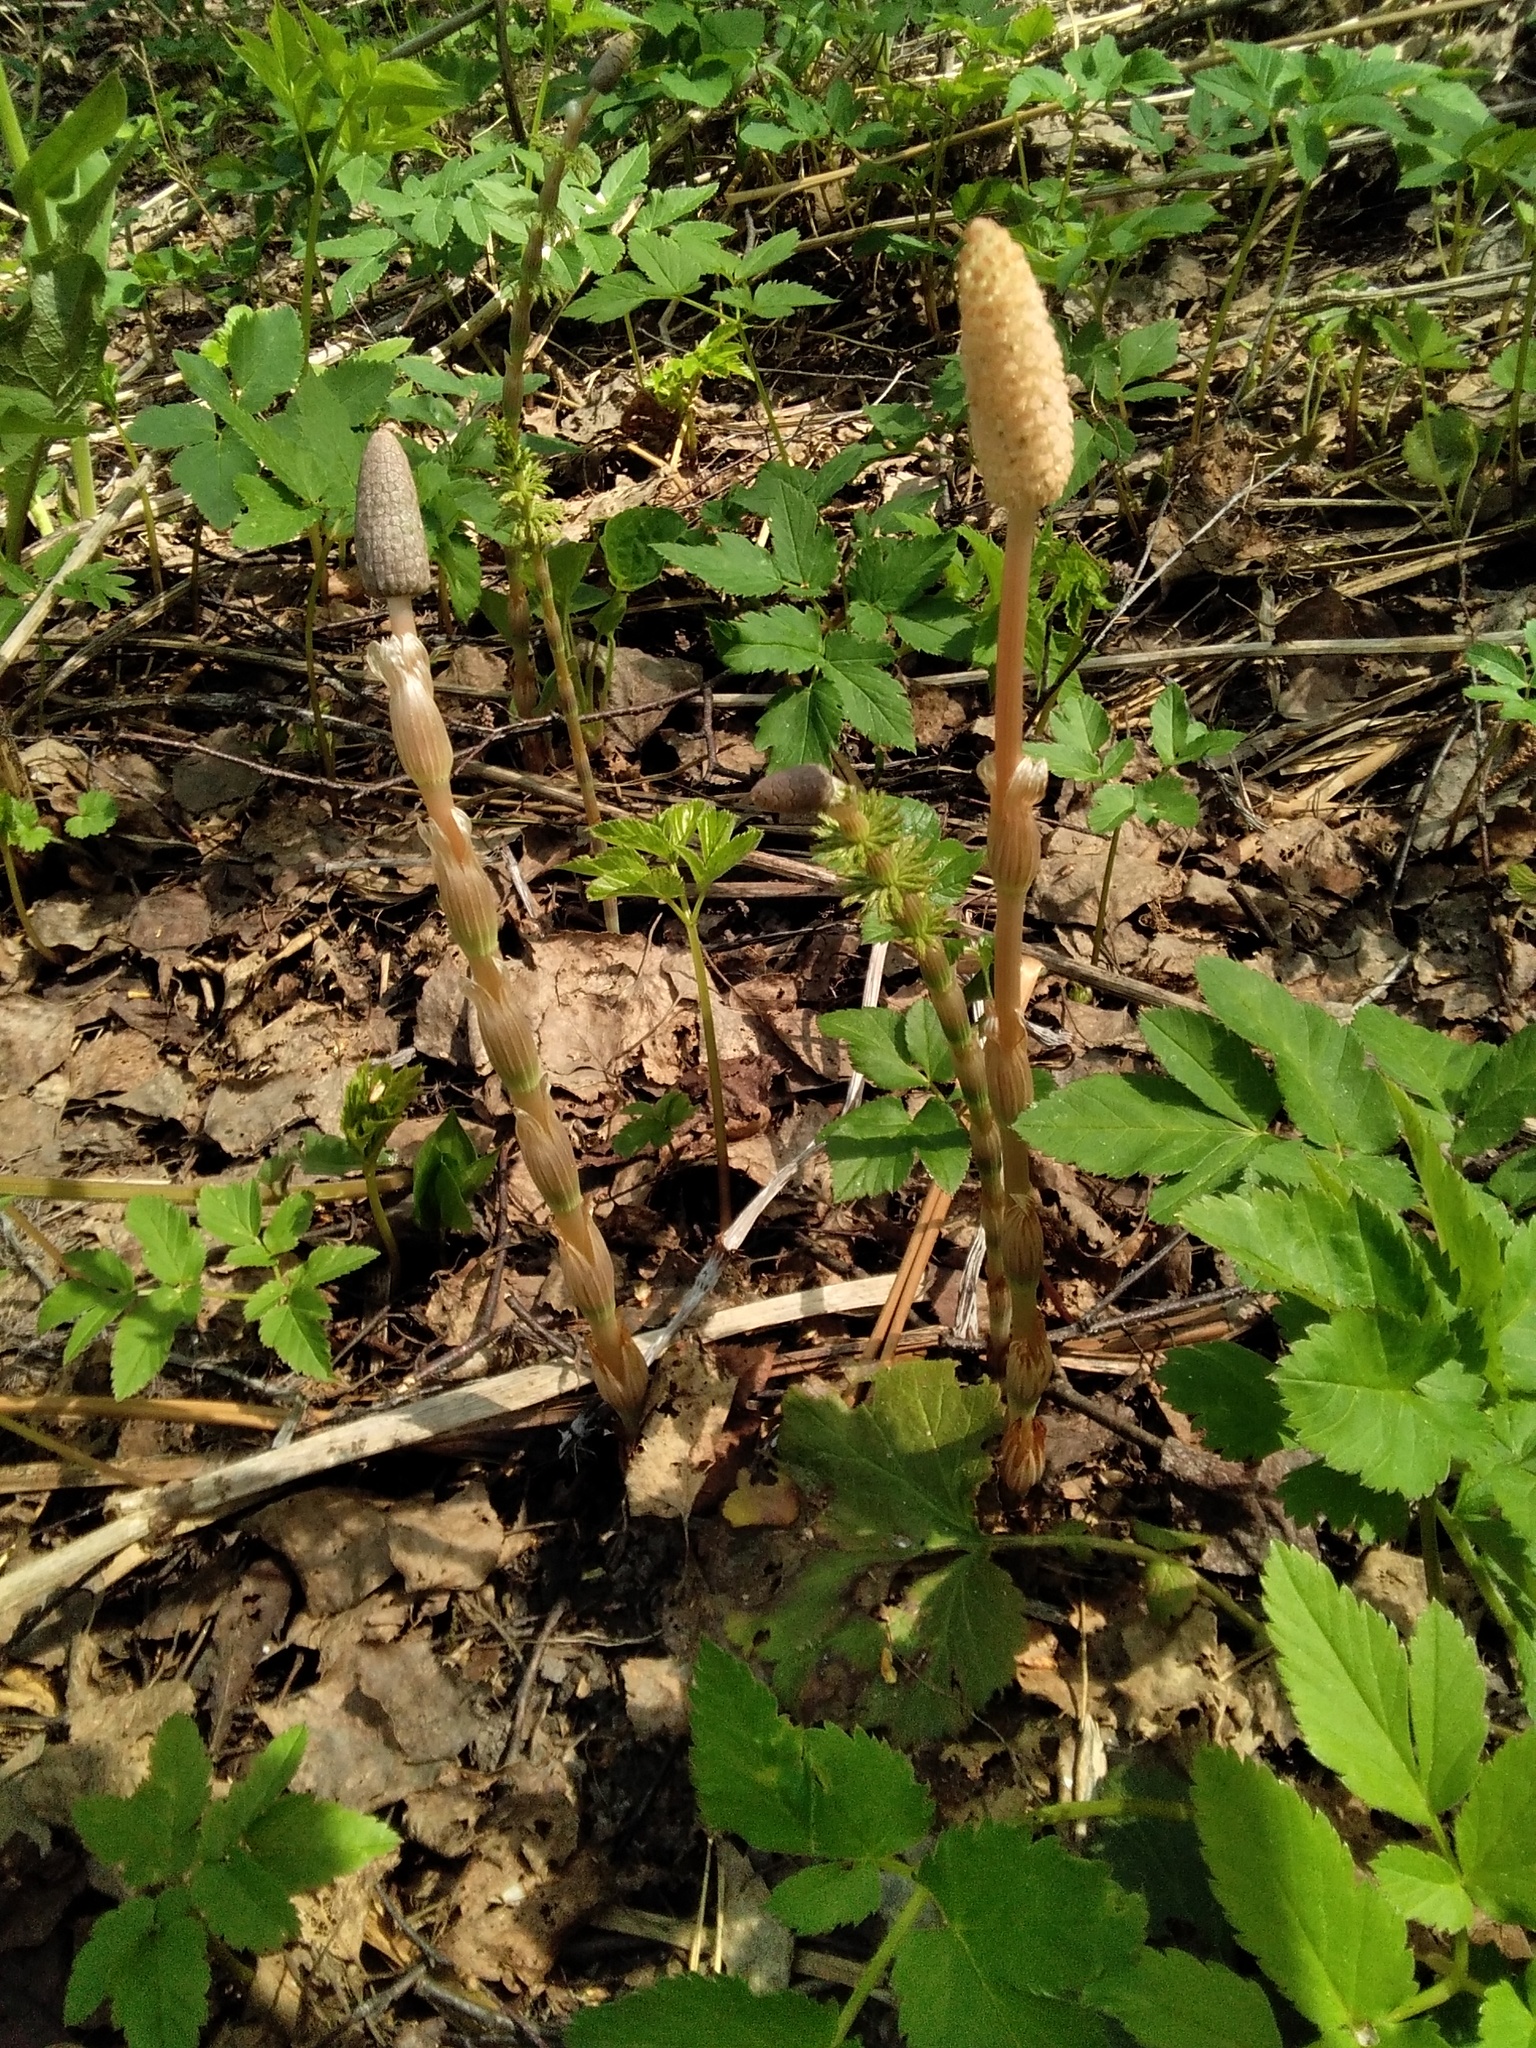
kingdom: Plantae
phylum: Tracheophyta
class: Polypodiopsida
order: Equisetales
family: Equisetaceae
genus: Equisetum
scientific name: Equisetum sylvaticum
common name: Wood horsetail
